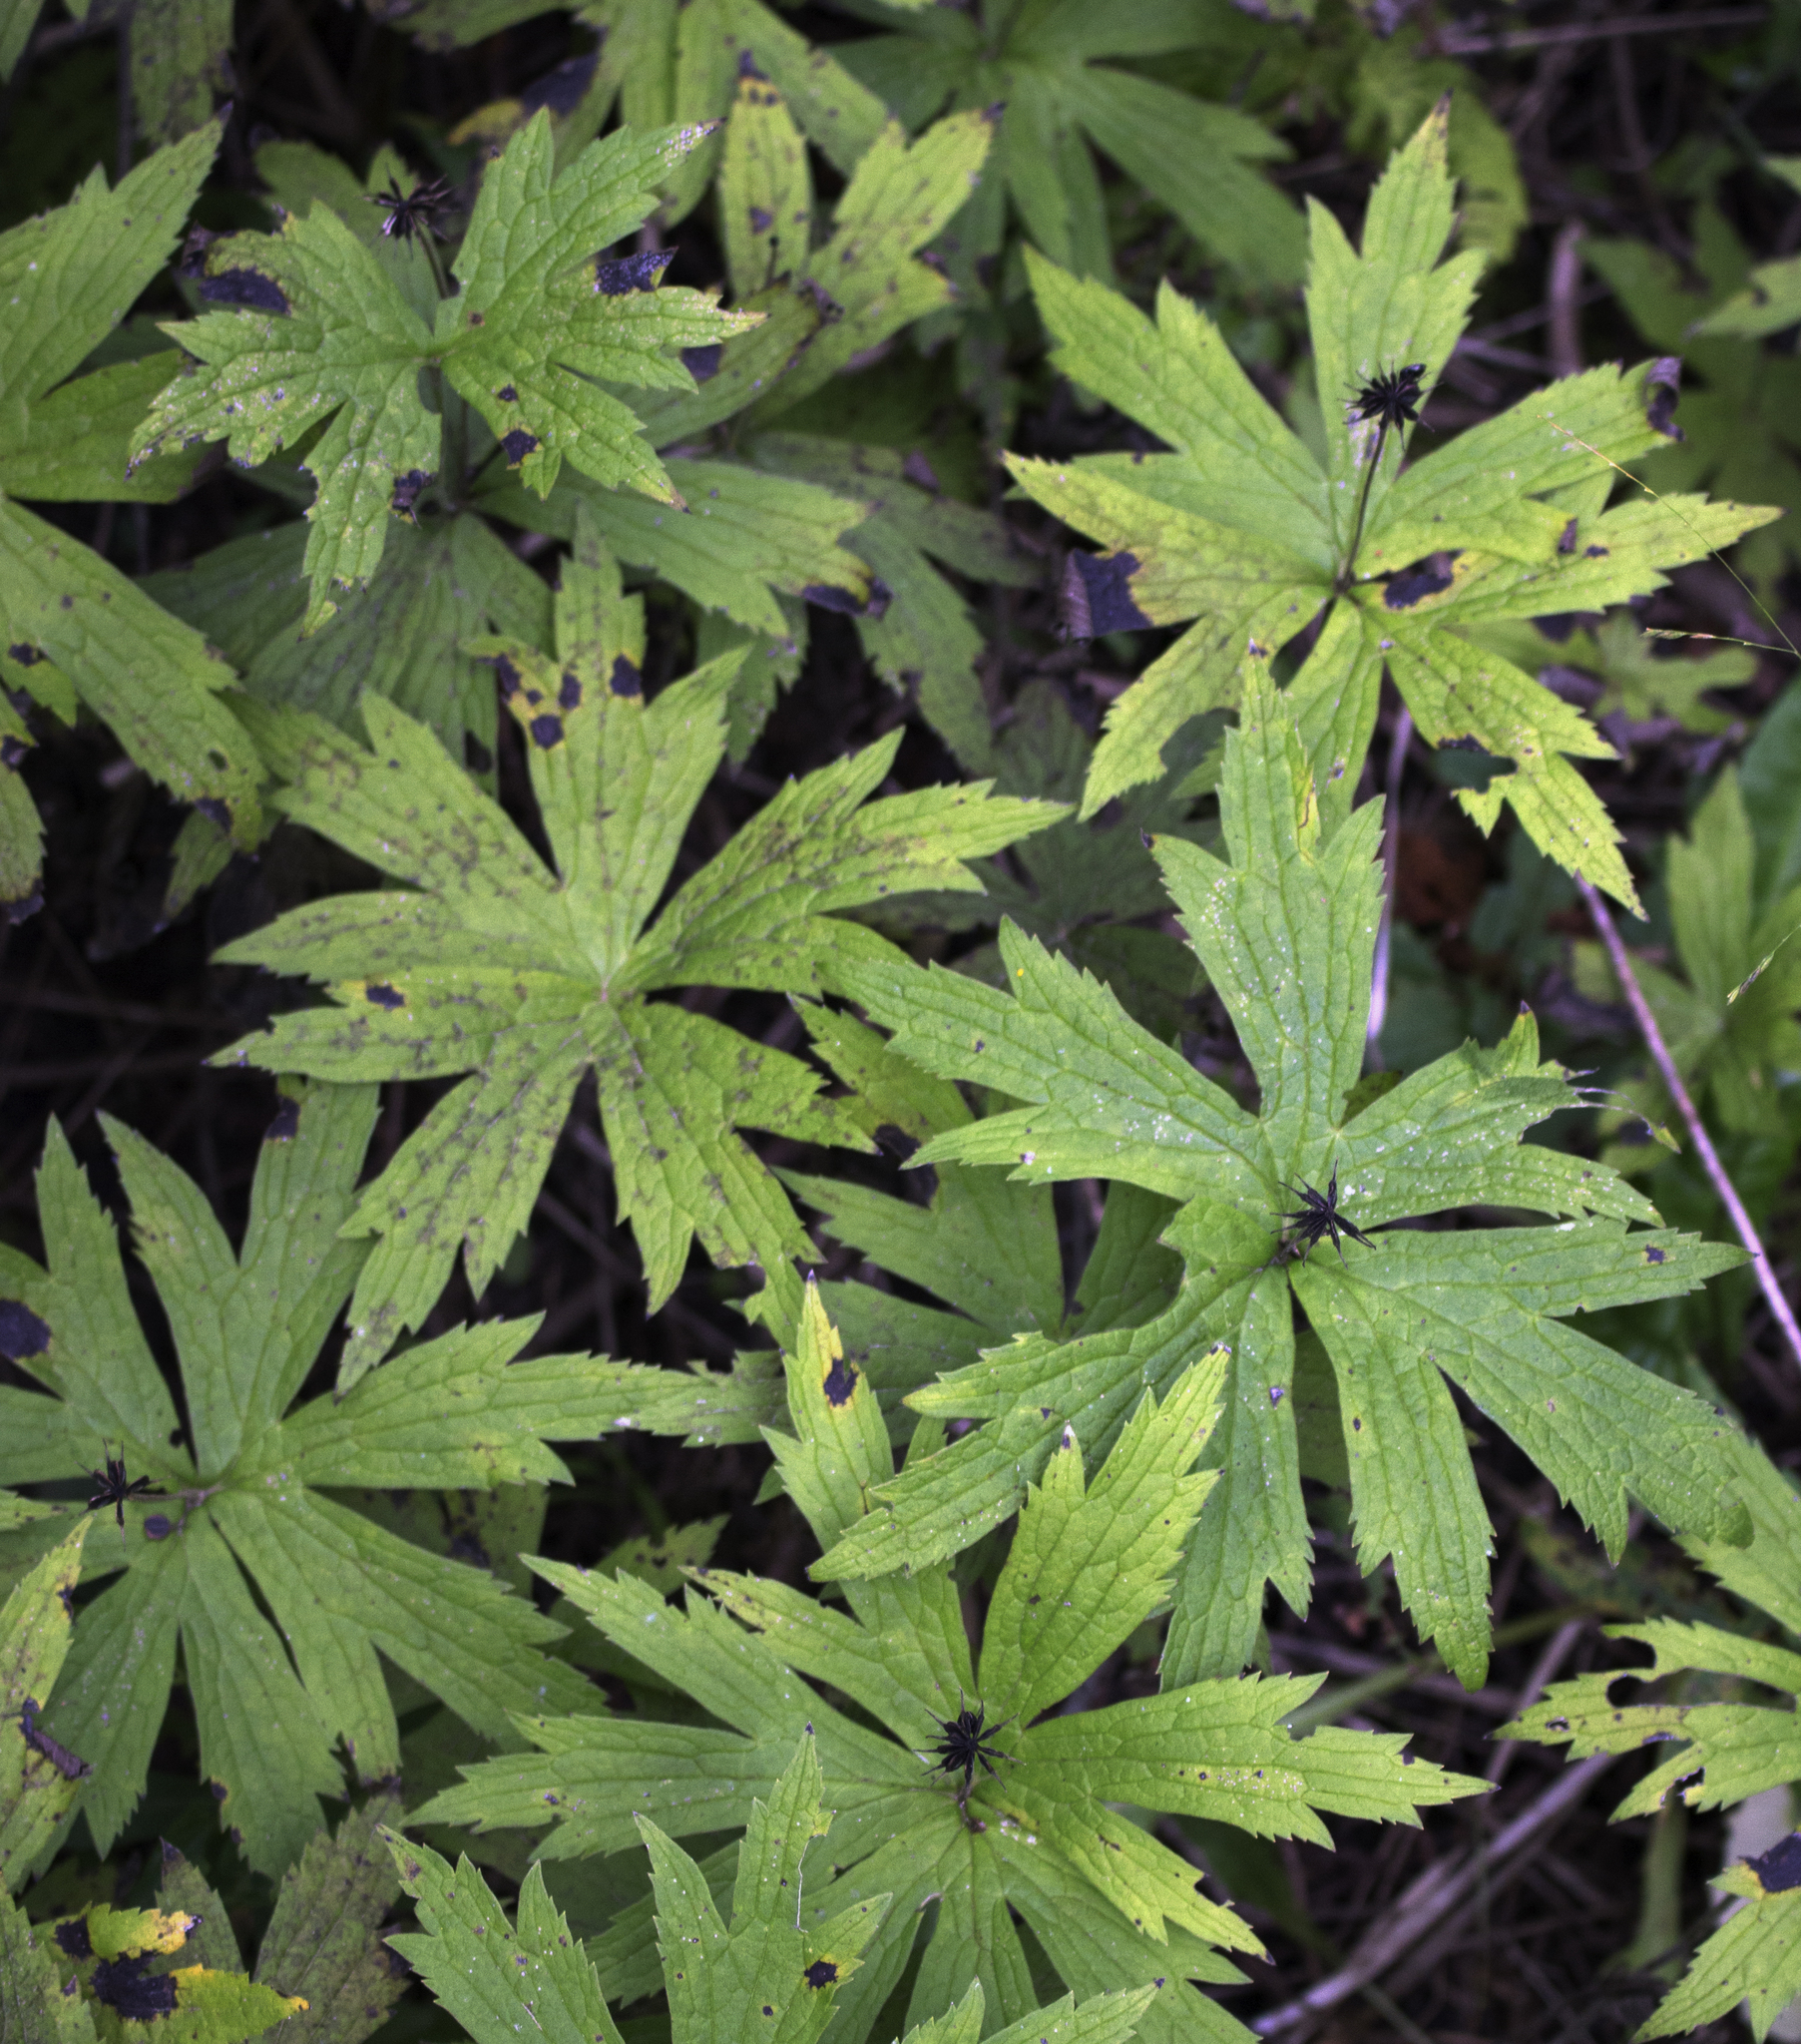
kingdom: Plantae
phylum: Tracheophyta
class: Magnoliopsida
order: Ranunculales
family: Ranunculaceae
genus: Anemonastrum
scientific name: Anemonastrum canadense
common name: Canada anemone
